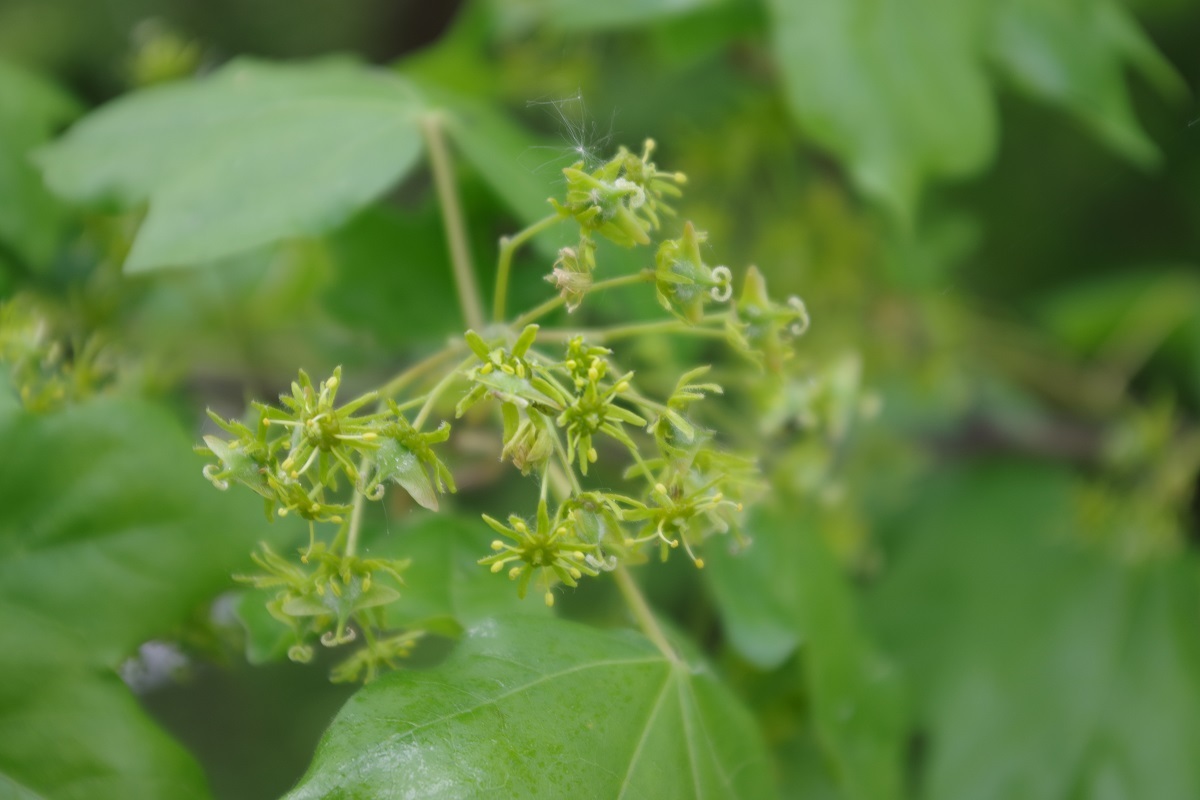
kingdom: Plantae
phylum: Tracheophyta
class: Magnoliopsida
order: Sapindales
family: Sapindaceae
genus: Acer
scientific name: Acer campestre
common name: Field maple
